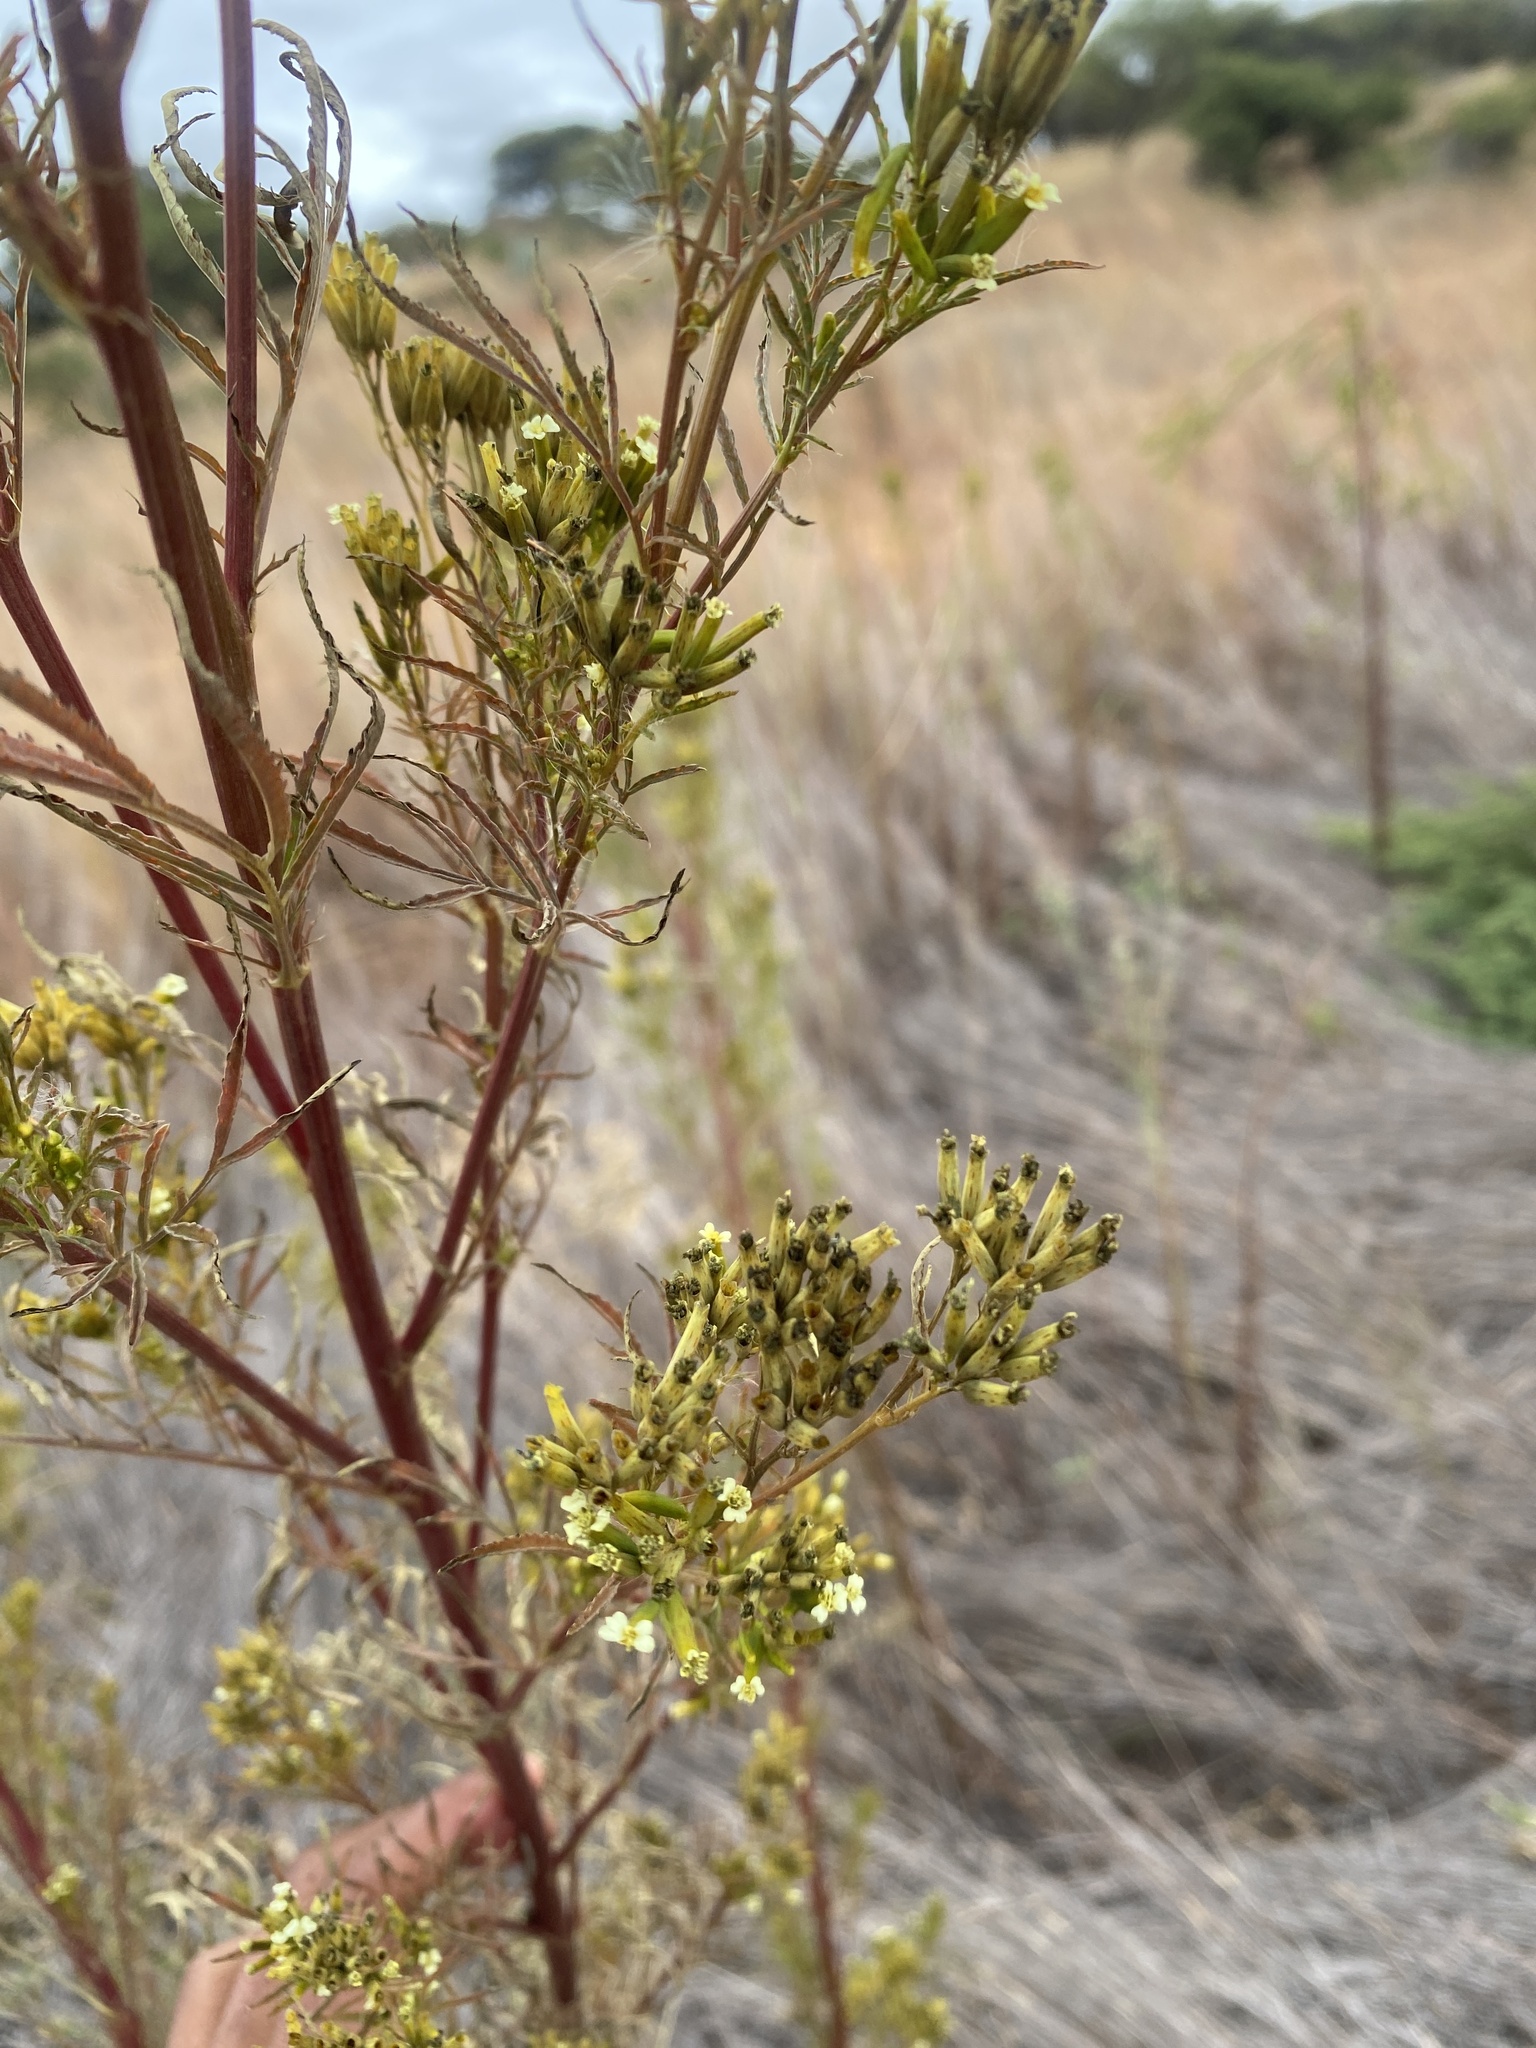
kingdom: Plantae
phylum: Tracheophyta
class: Magnoliopsida
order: Asterales
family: Asteraceae
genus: Tagetes
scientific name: Tagetes minuta
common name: Muster john henry
